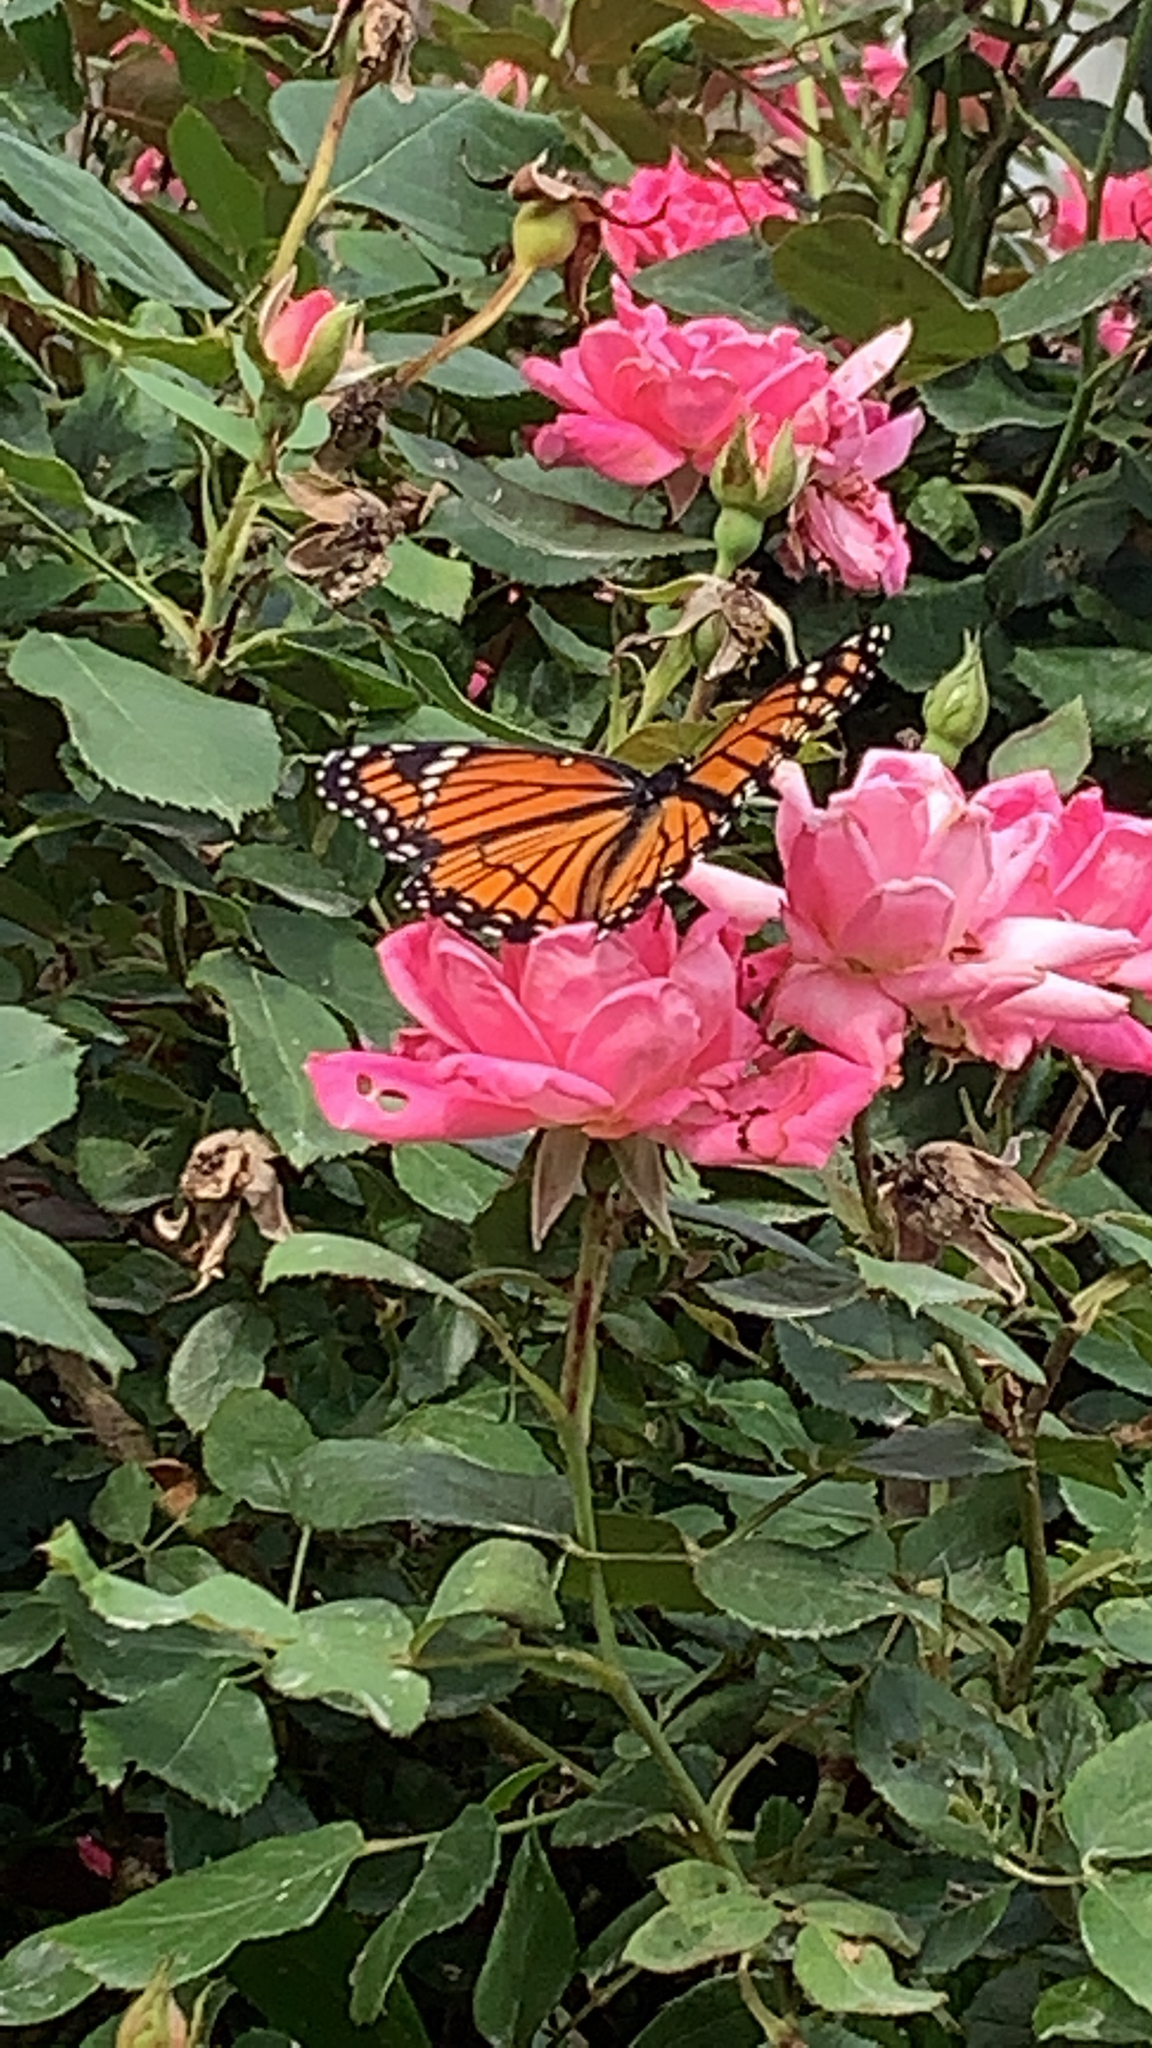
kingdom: Animalia
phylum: Arthropoda
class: Insecta
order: Lepidoptera
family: Nymphalidae
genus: Limenitis
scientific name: Limenitis archippus
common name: Viceroy
